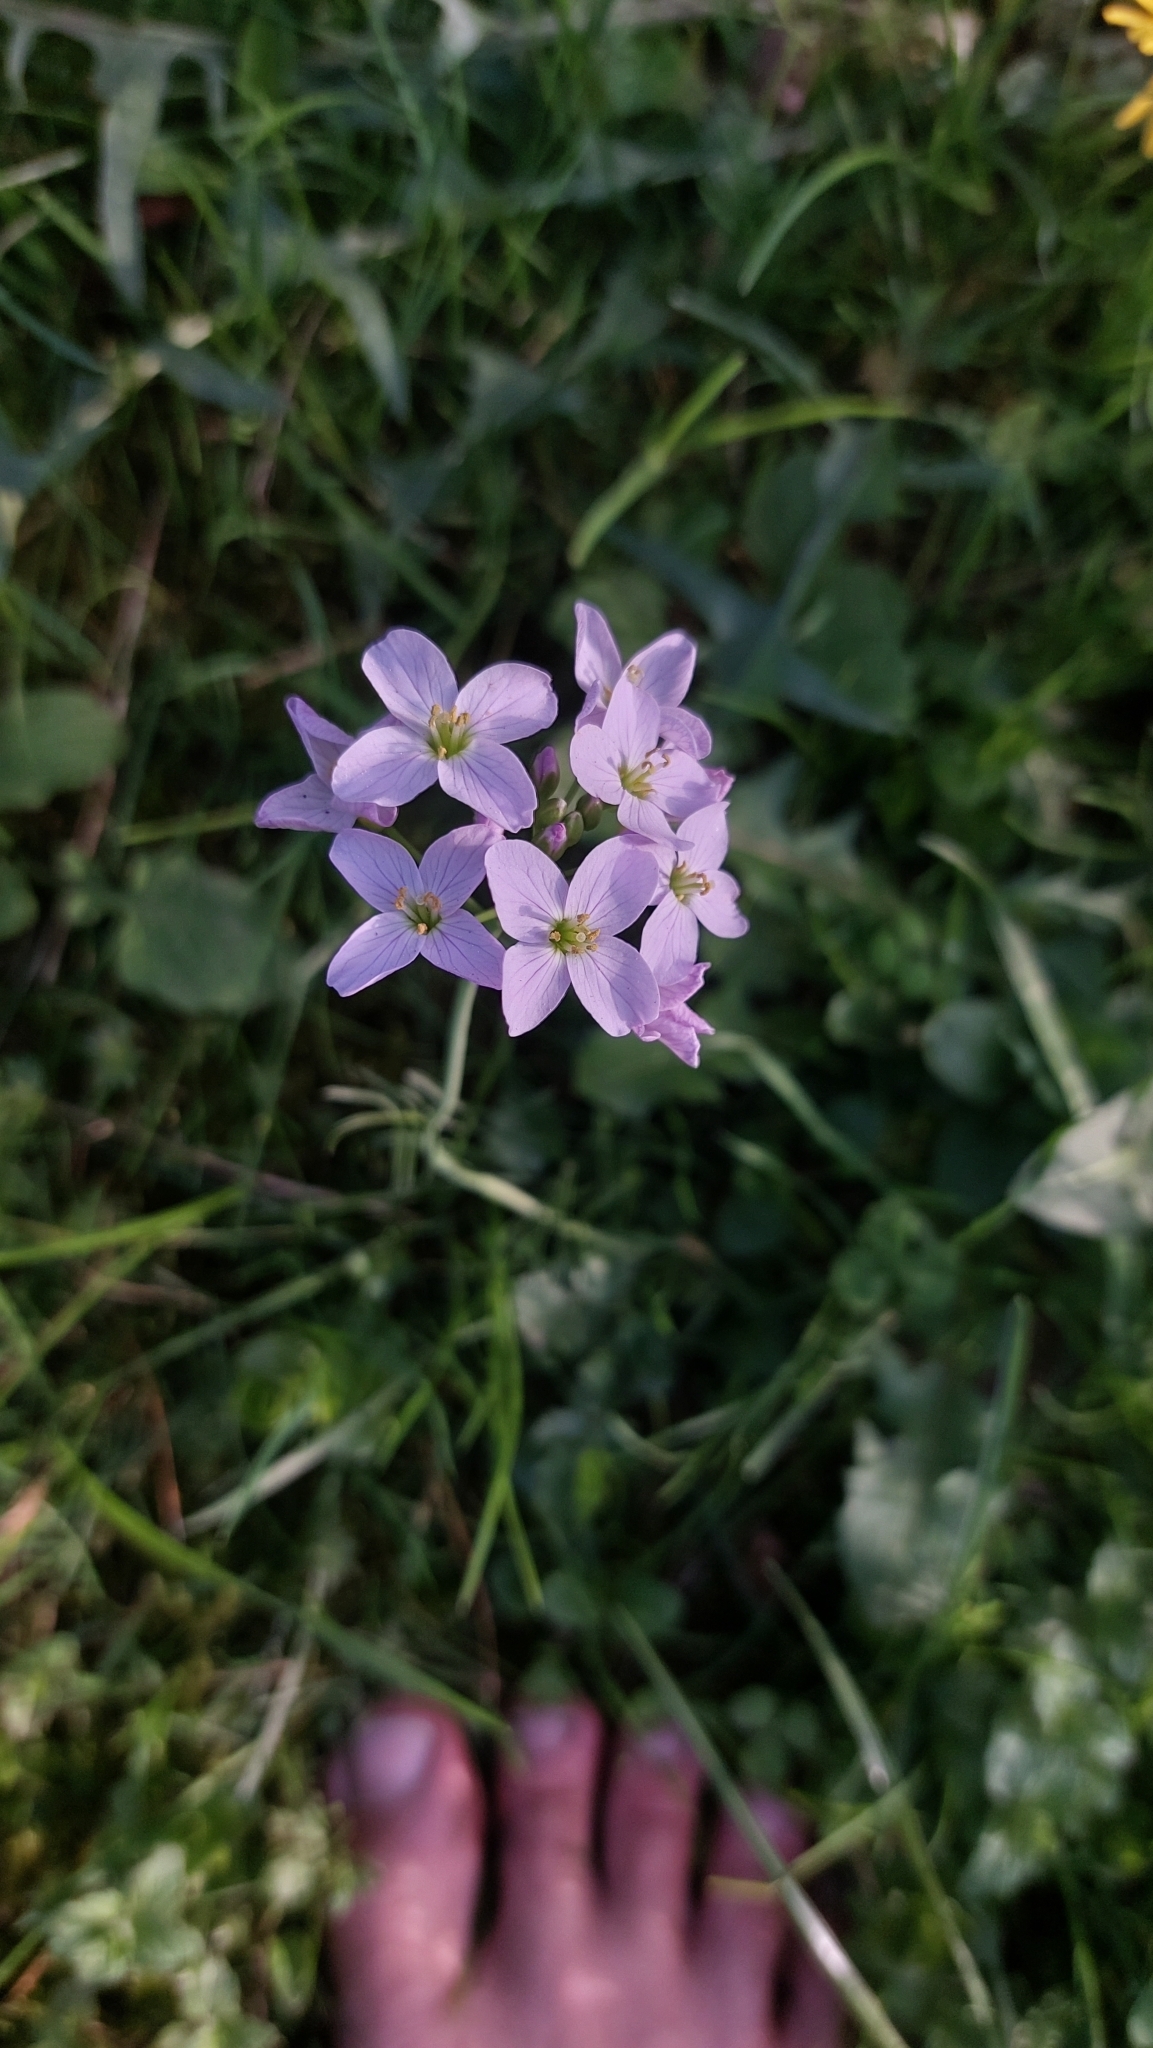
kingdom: Plantae
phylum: Tracheophyta
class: Magnoliopsida
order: Brassicales
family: Brassicaceae
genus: Cardamine
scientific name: Cardamine pratensis
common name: Cuckoo flower
